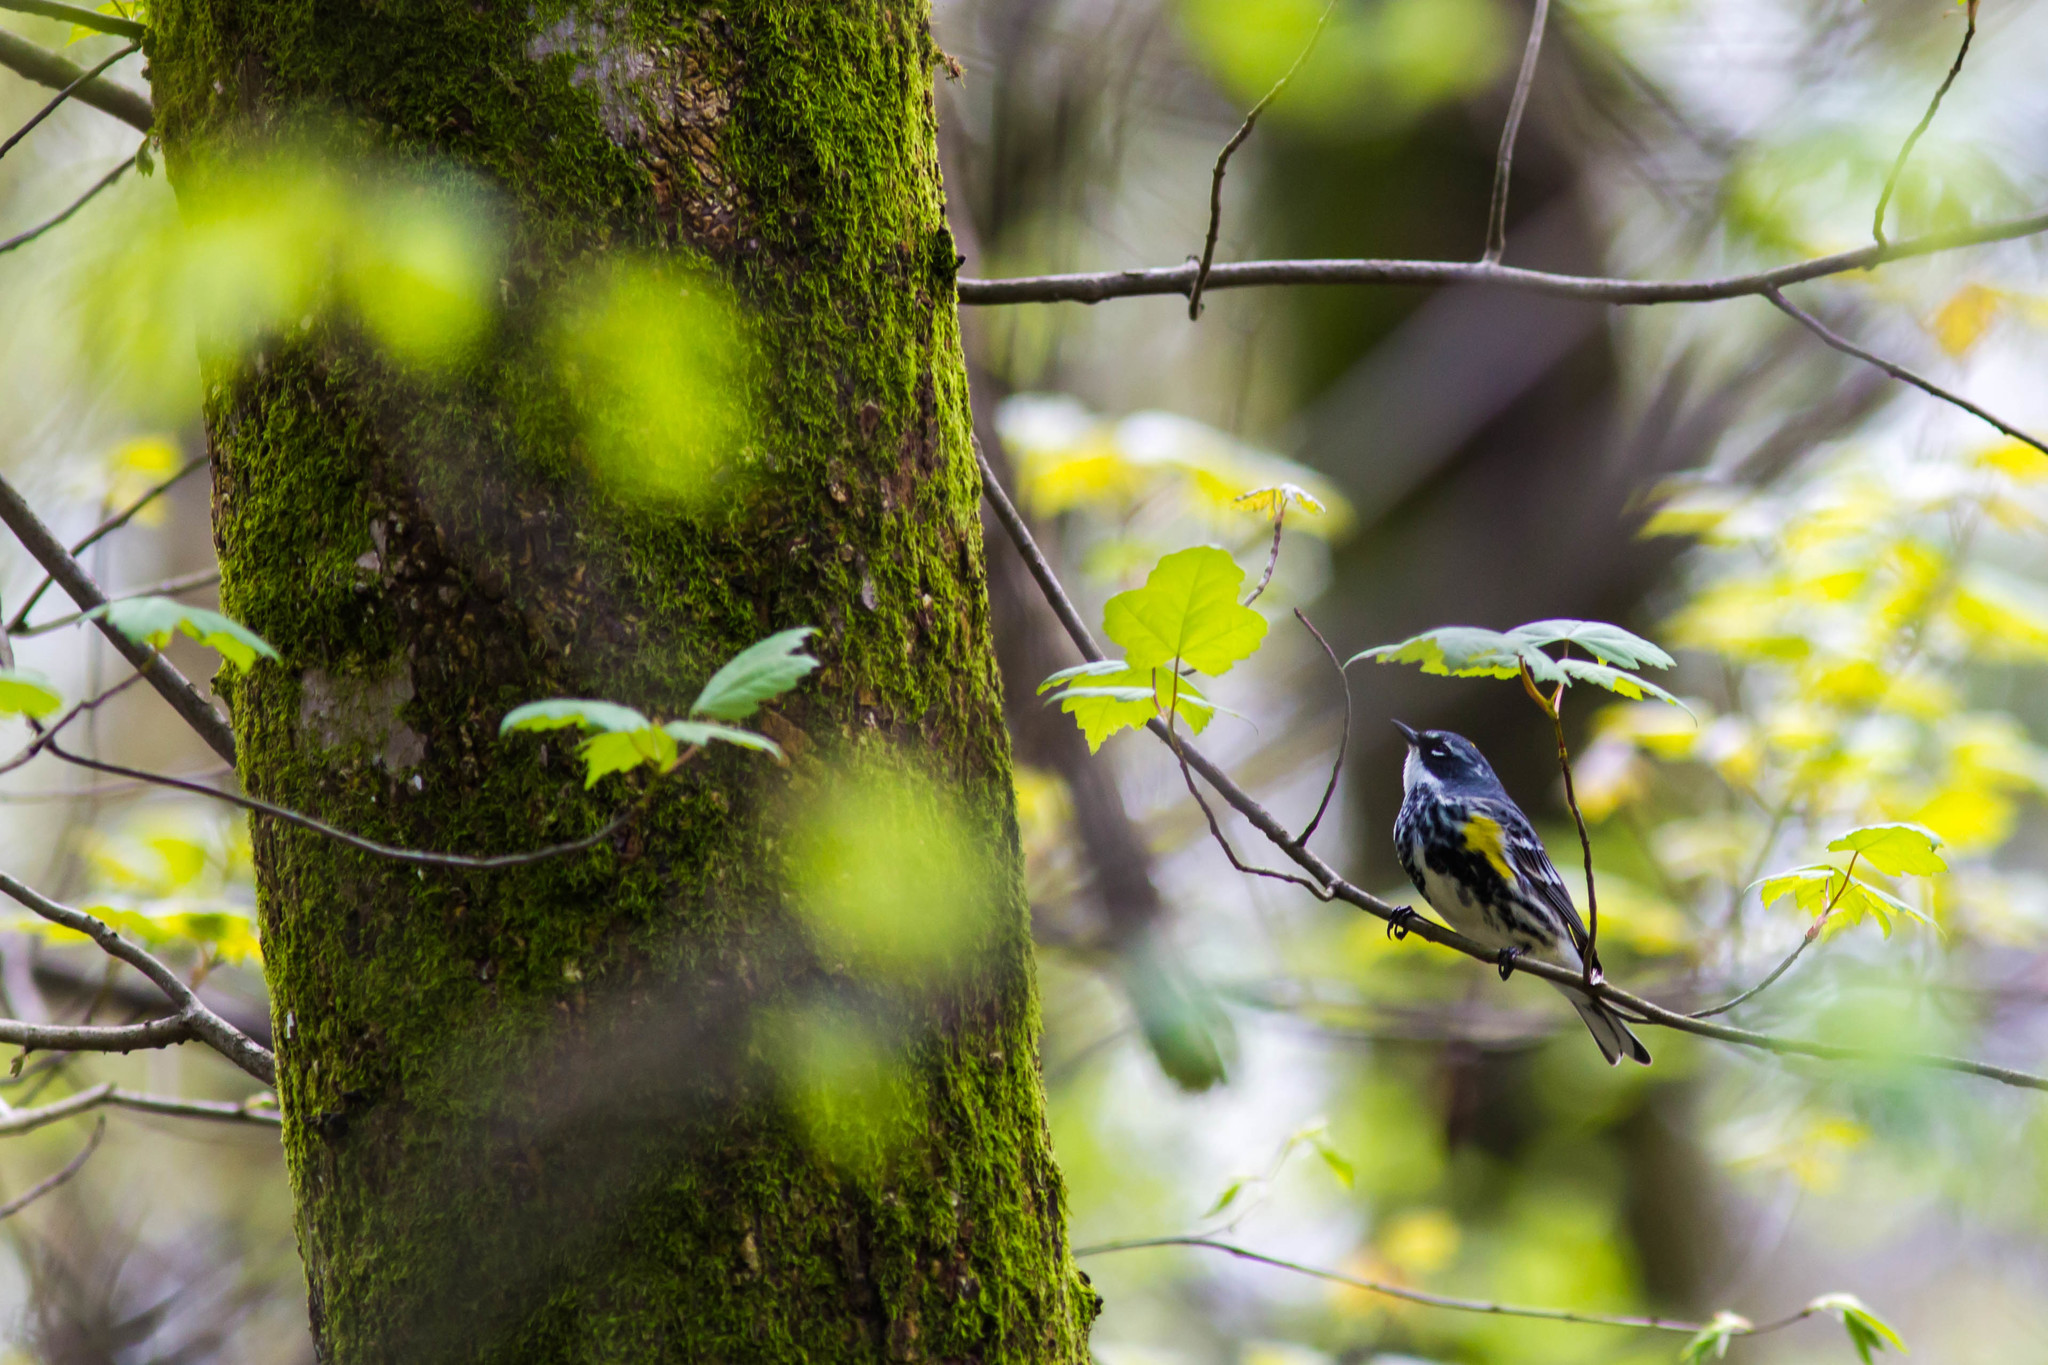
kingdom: Animalia
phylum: Chordata
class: Aves
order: Passeriformes
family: Parulidae
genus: Setophaga
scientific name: Setophaga coronata
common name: Myrtle warbler
